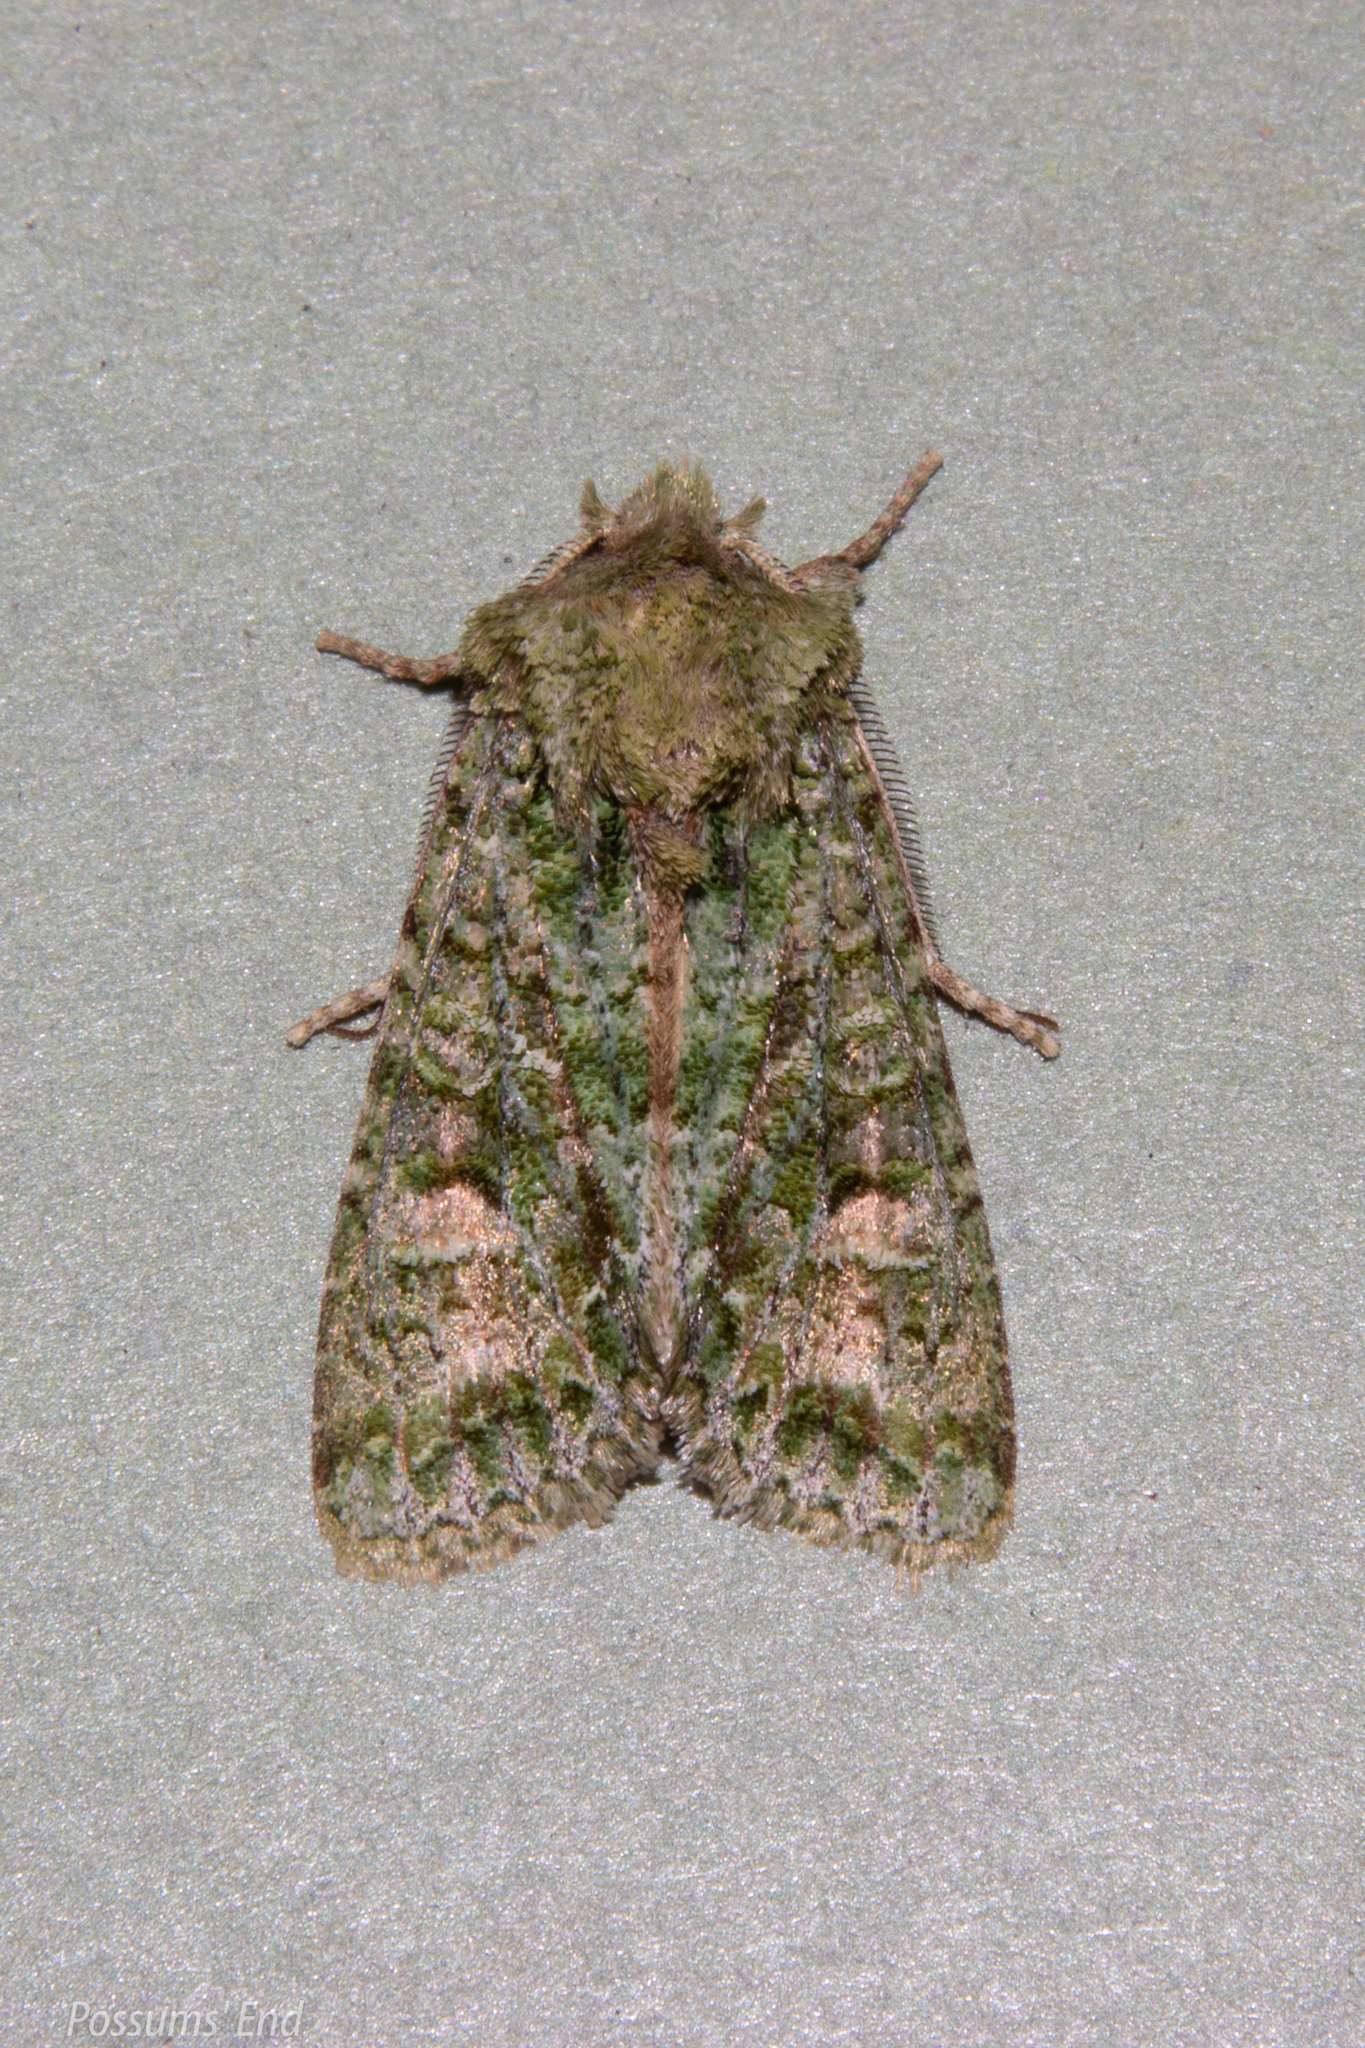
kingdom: Animalia
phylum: Arthropoda
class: Insecta
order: Lepidoptera
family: Noctuidae
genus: Ichneutica
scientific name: Ichneutica
